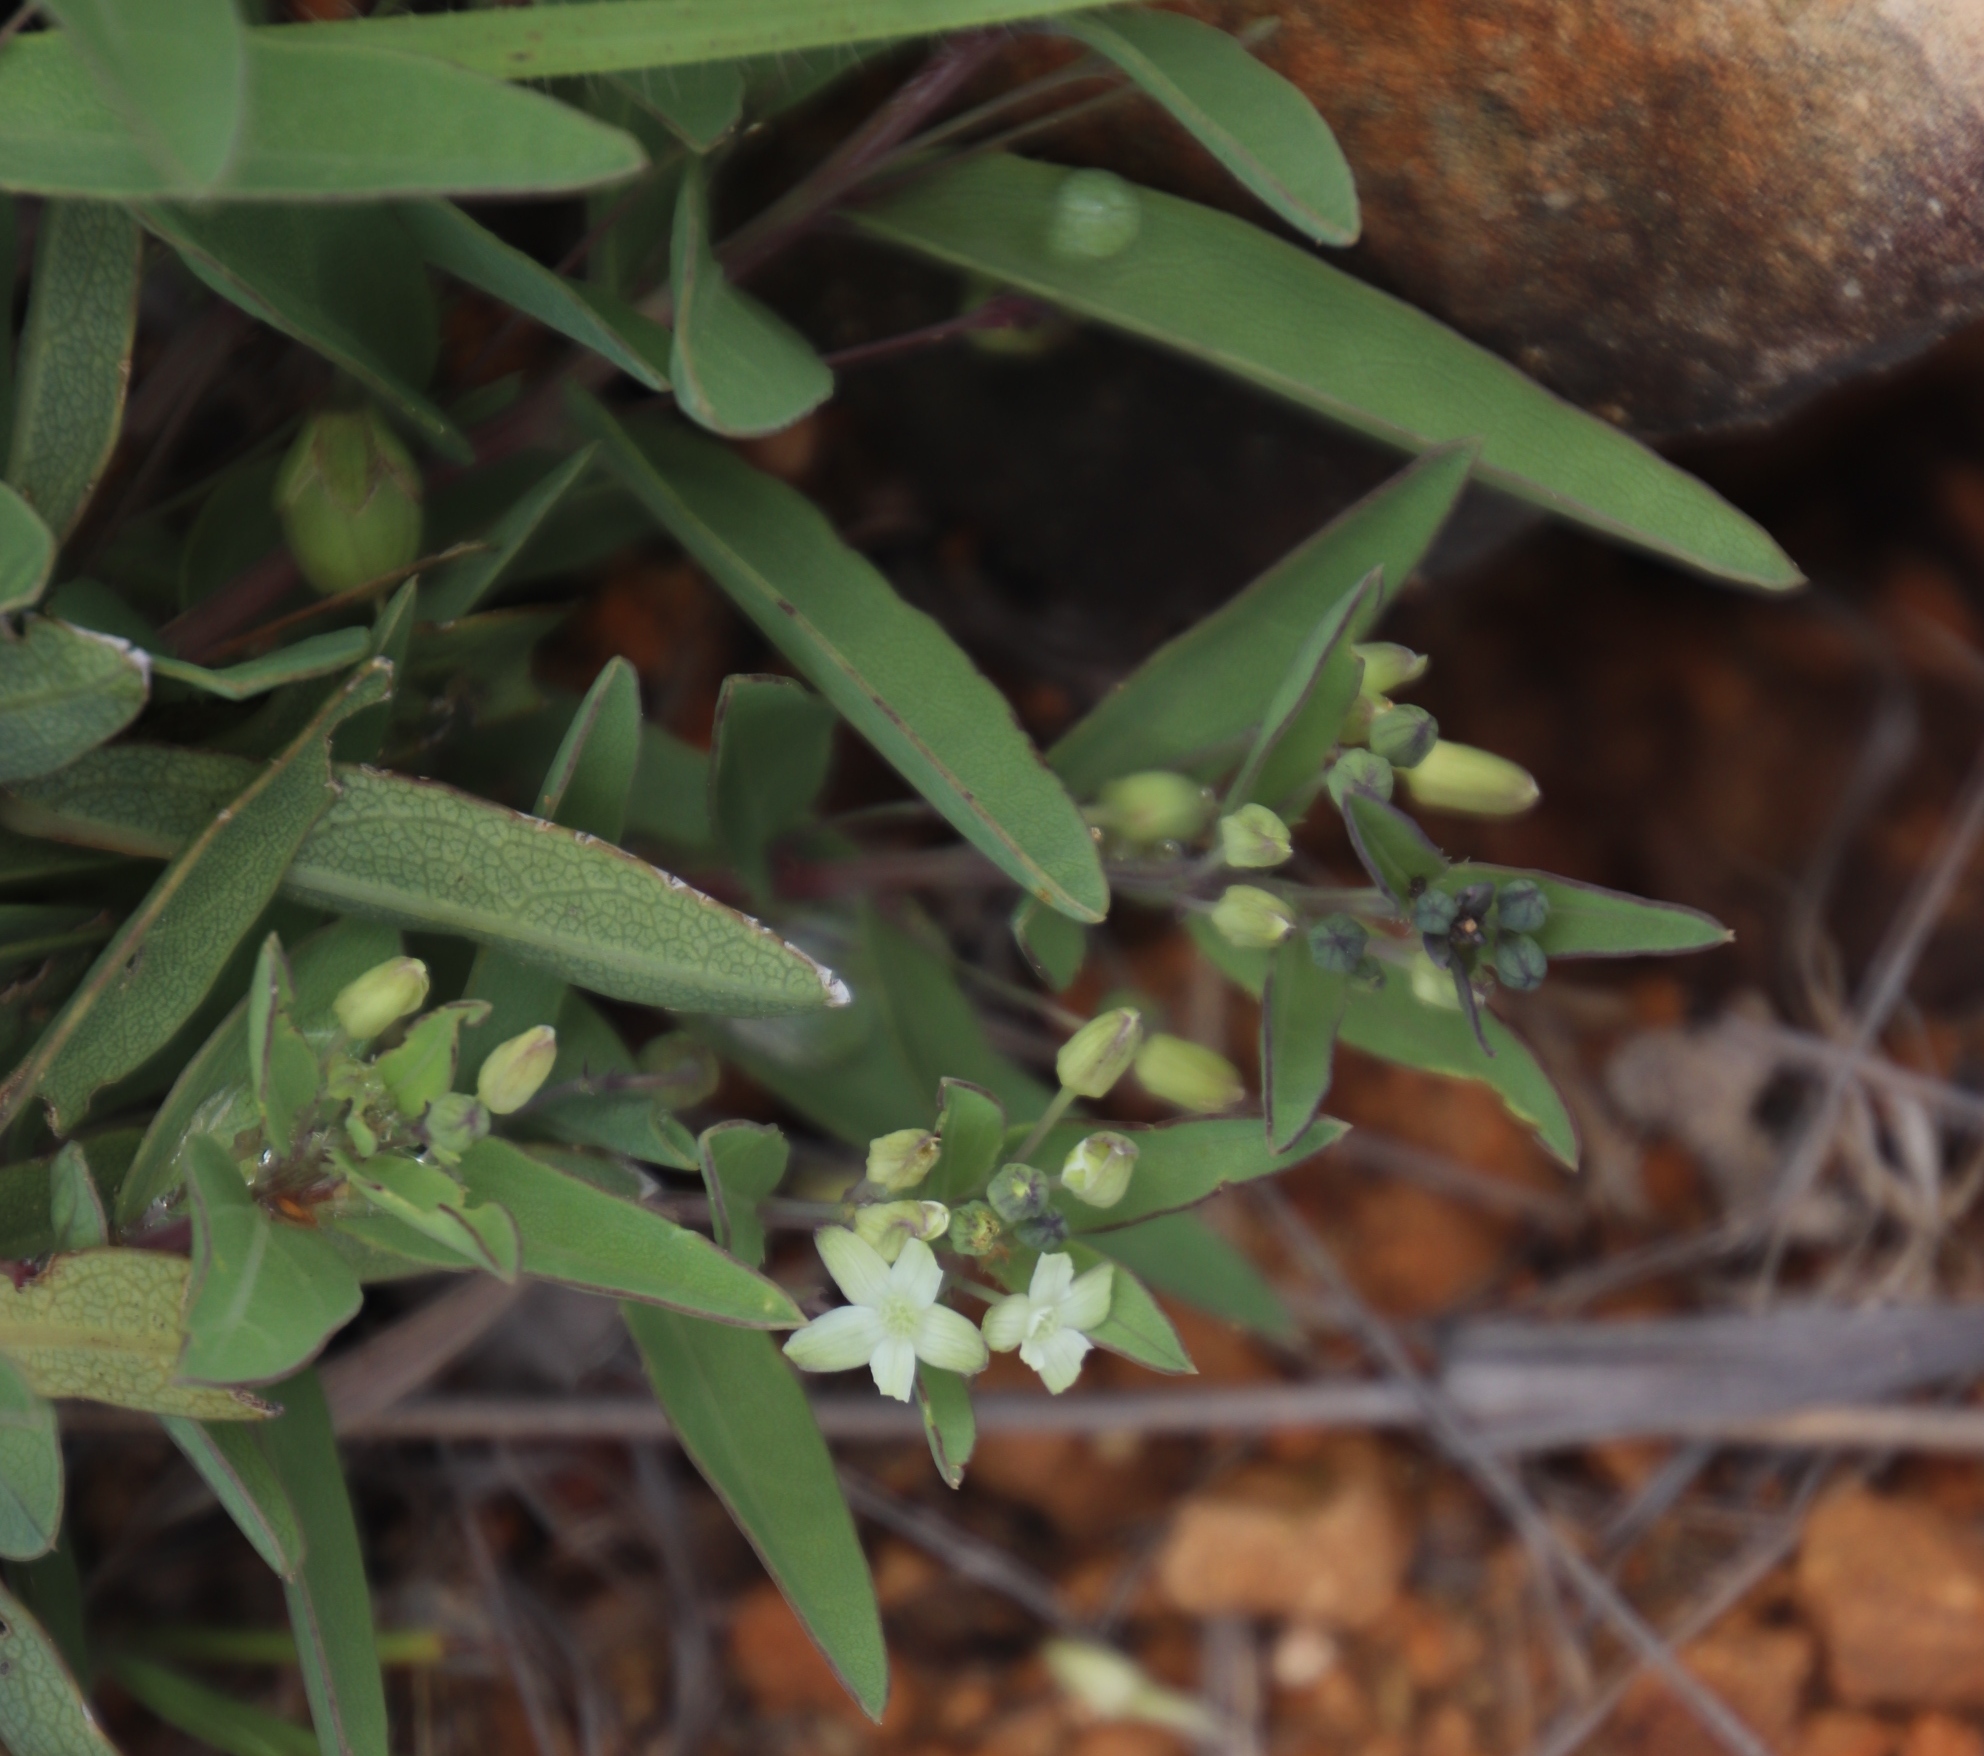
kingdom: Plantae
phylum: Tracheophyta
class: Magnoliopsida
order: Malpighiales
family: Passifloraceae
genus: Basananthe
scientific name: Basananthe sandersonii
